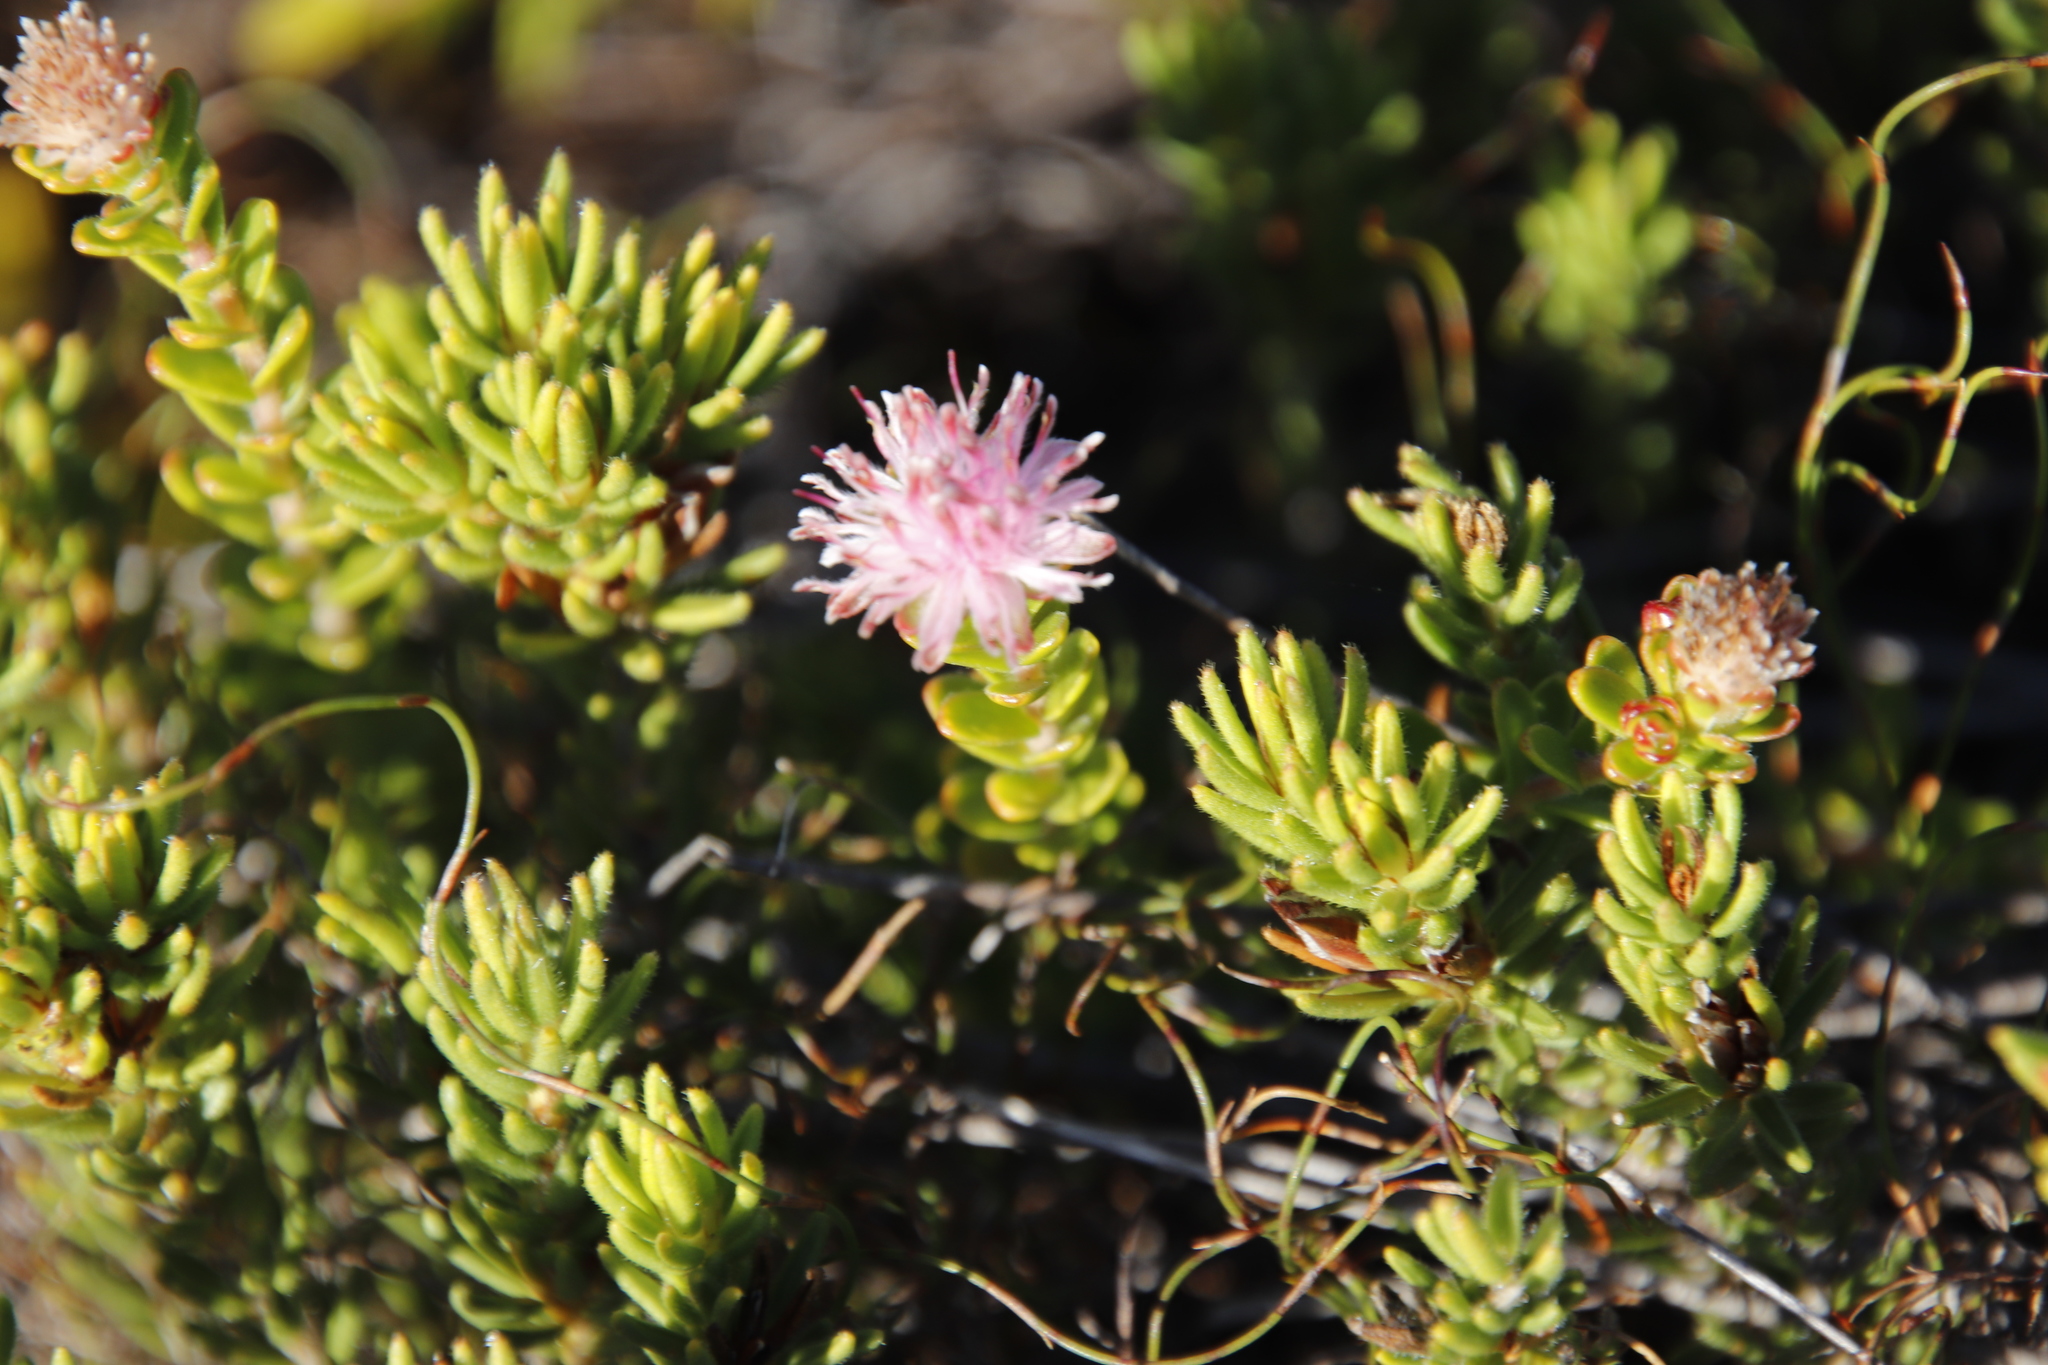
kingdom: Plantae
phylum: Tracheophyta
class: Magnoliopsida
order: Proteales
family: Proteaceae
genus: Diastella
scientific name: Diastella divaricata
